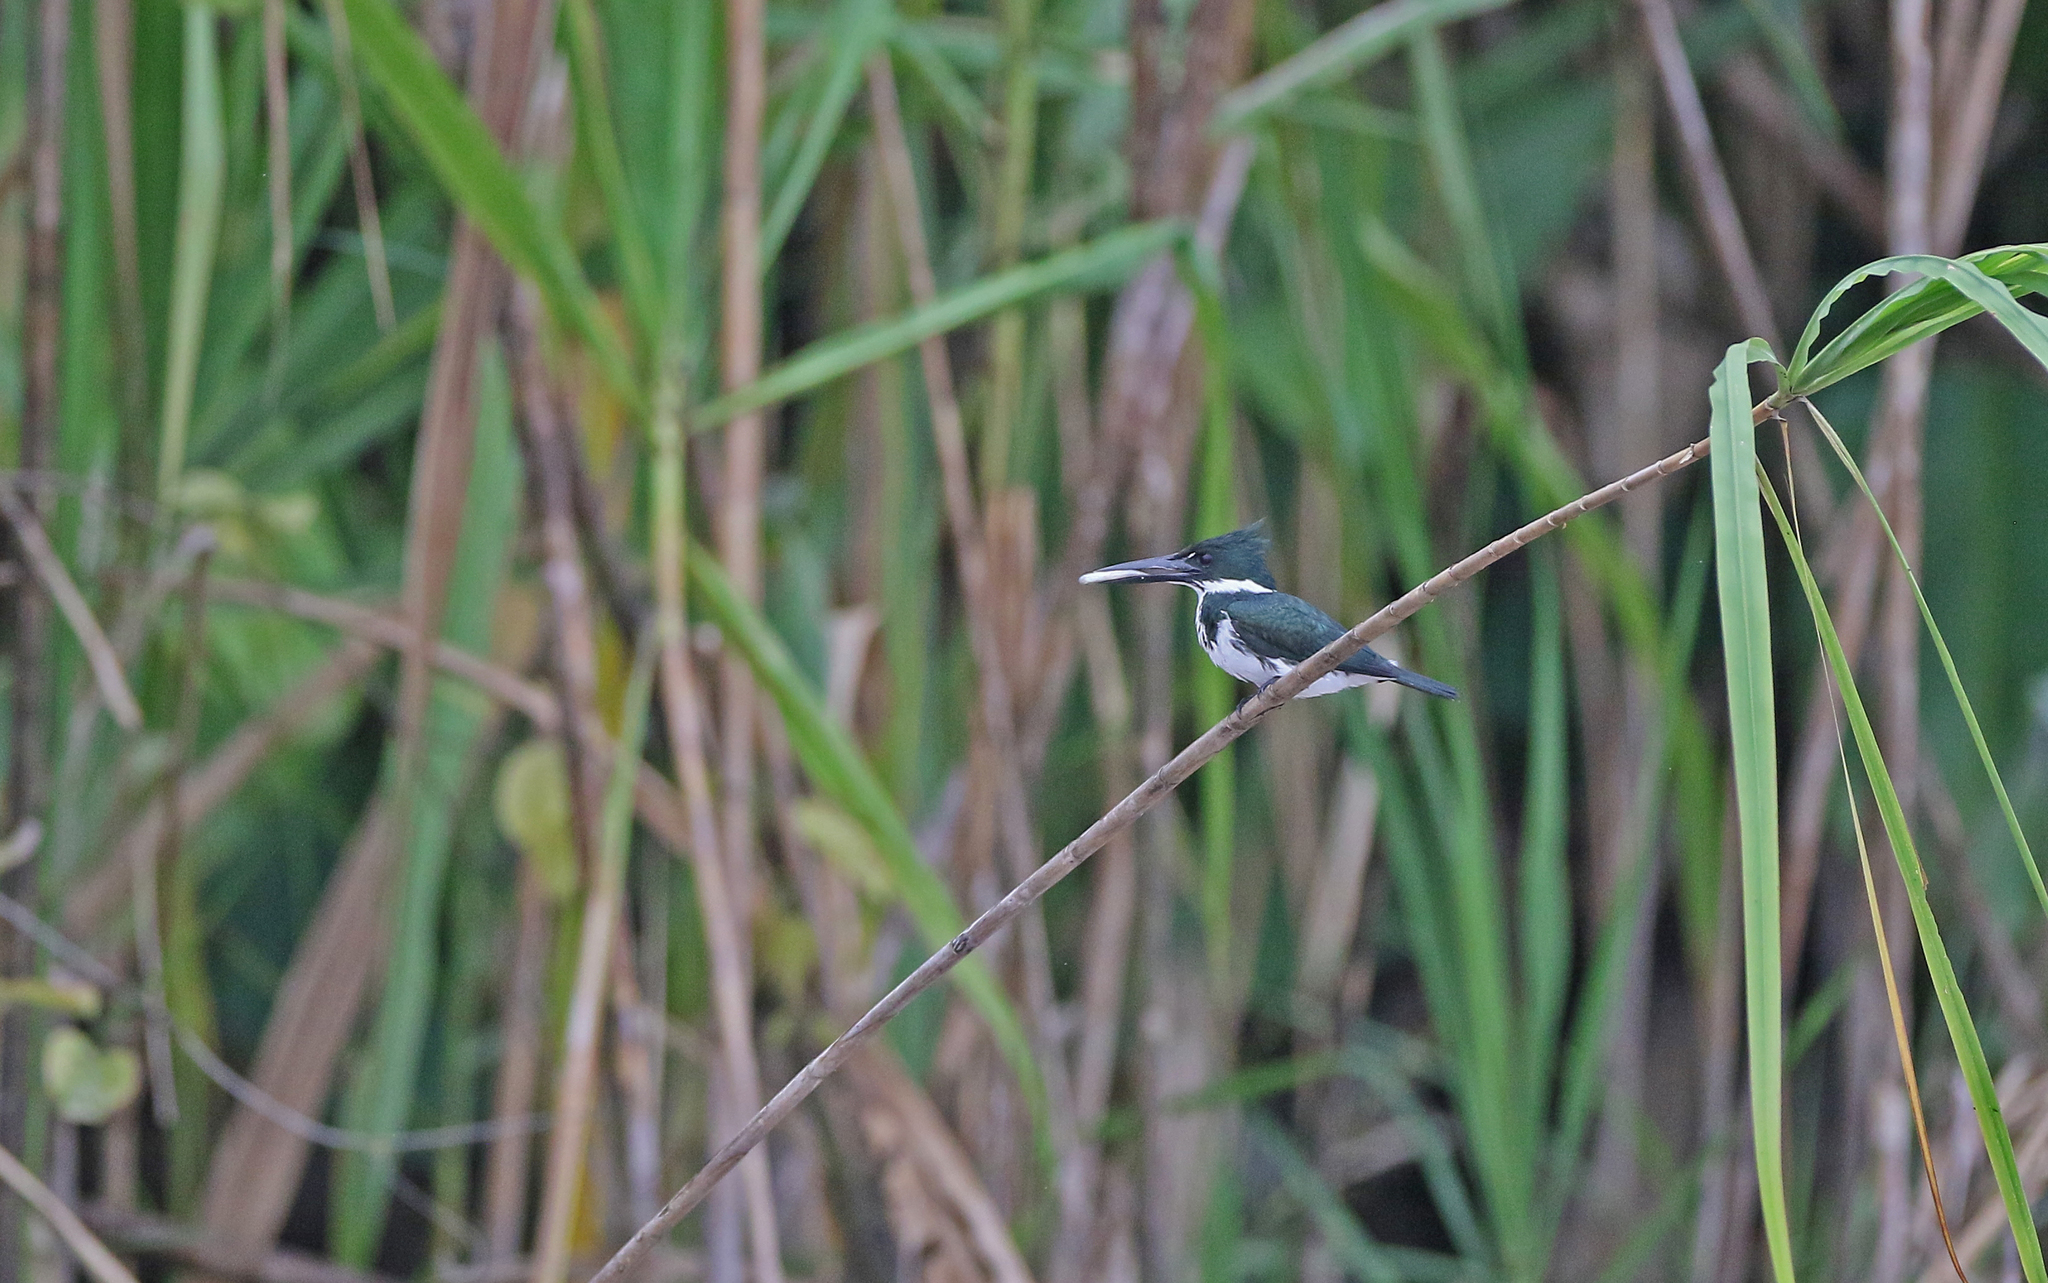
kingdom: Animalia
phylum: Chordata
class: Aves
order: Coraciiformes
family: Alcedinidae
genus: Chloroceryle
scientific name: Chloroceryle amazona
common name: Amazon kingfisher
